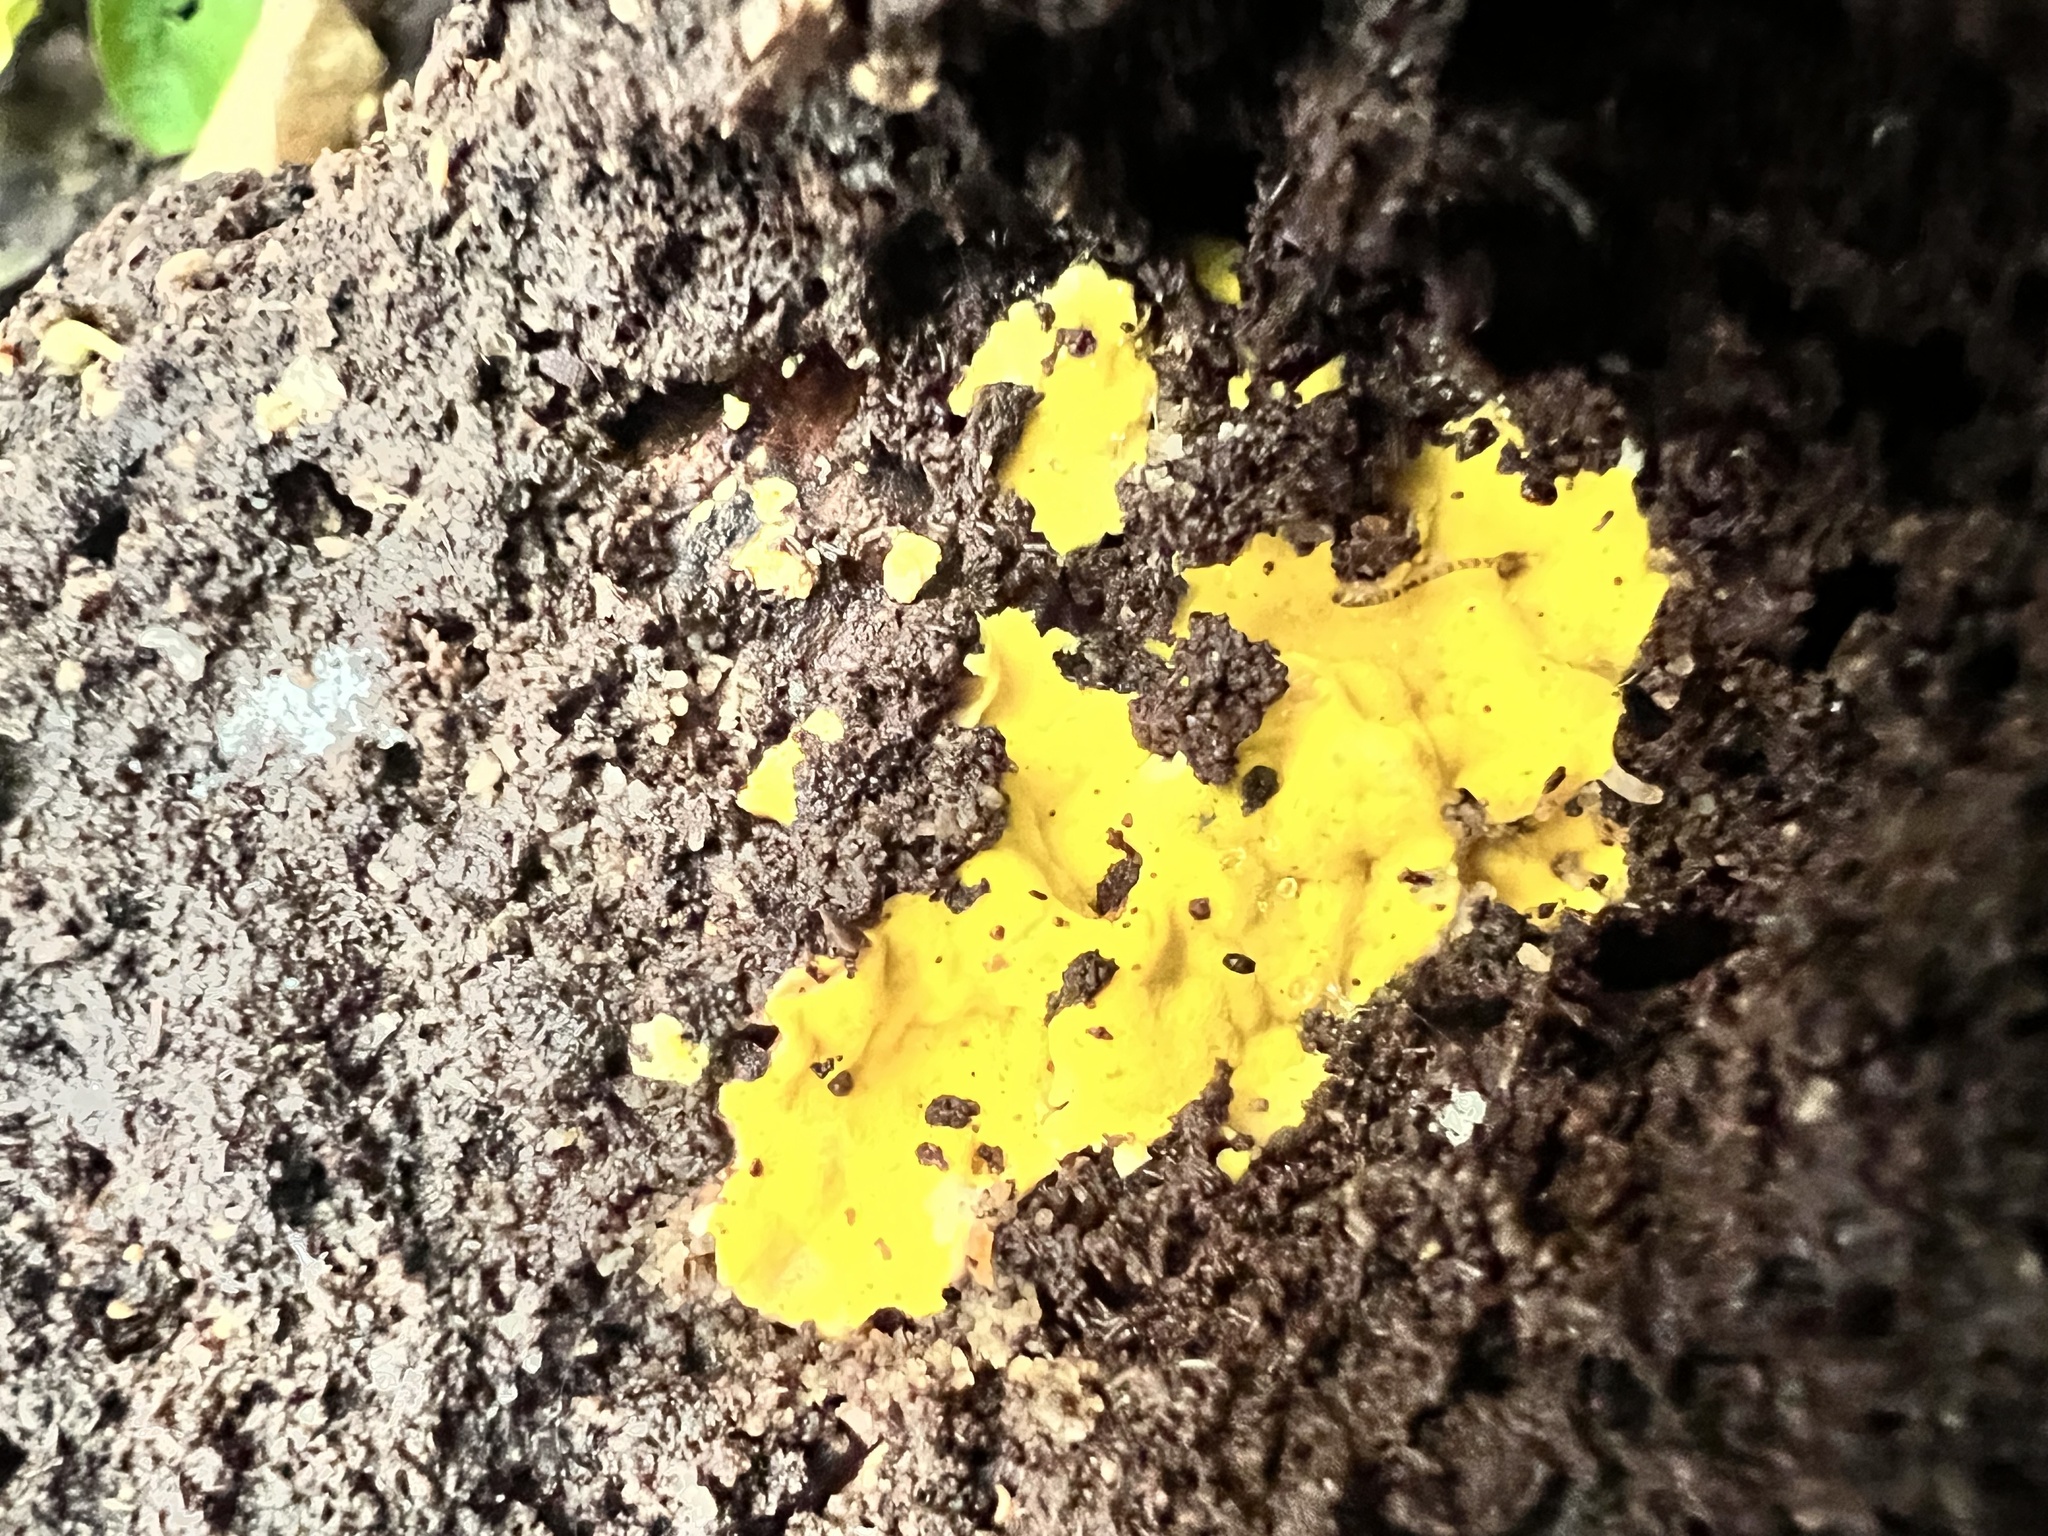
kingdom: Fungi
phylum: Basidiomycota
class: Agaricomycetes
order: Polyporales
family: Steccherinaceae
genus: Flaviporus
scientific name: Flaviporus brownii
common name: Yellowpored bracket
